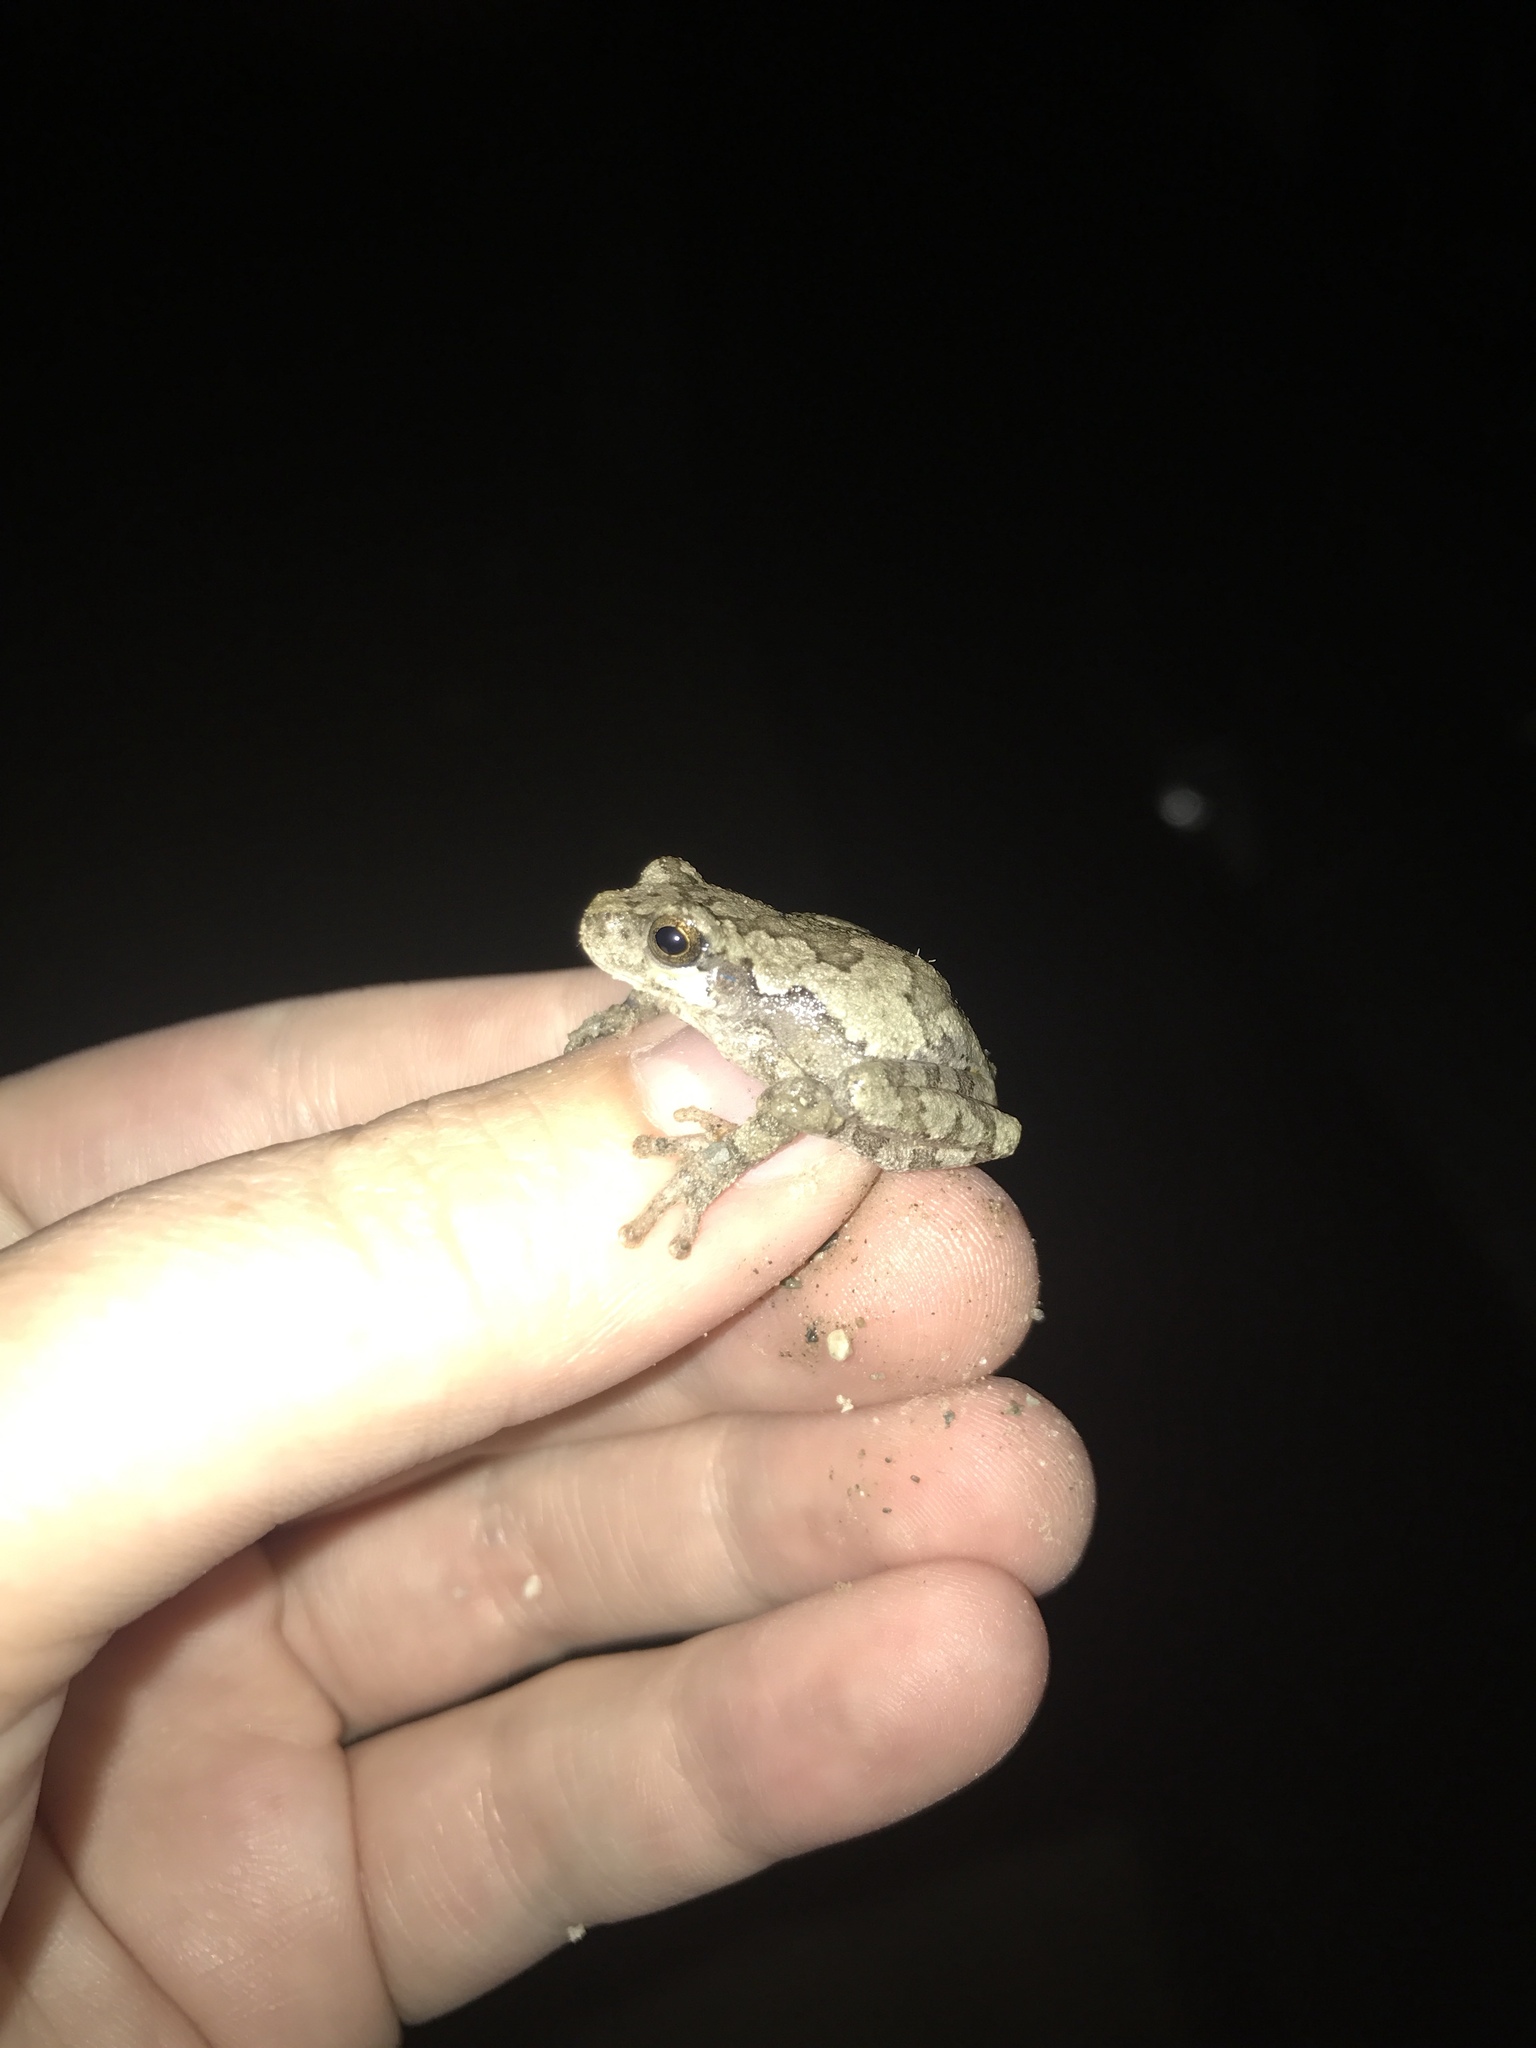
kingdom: Animalia
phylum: Chordata
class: Amphibia
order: Anura
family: Hylidae
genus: Hyla
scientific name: Hyla
